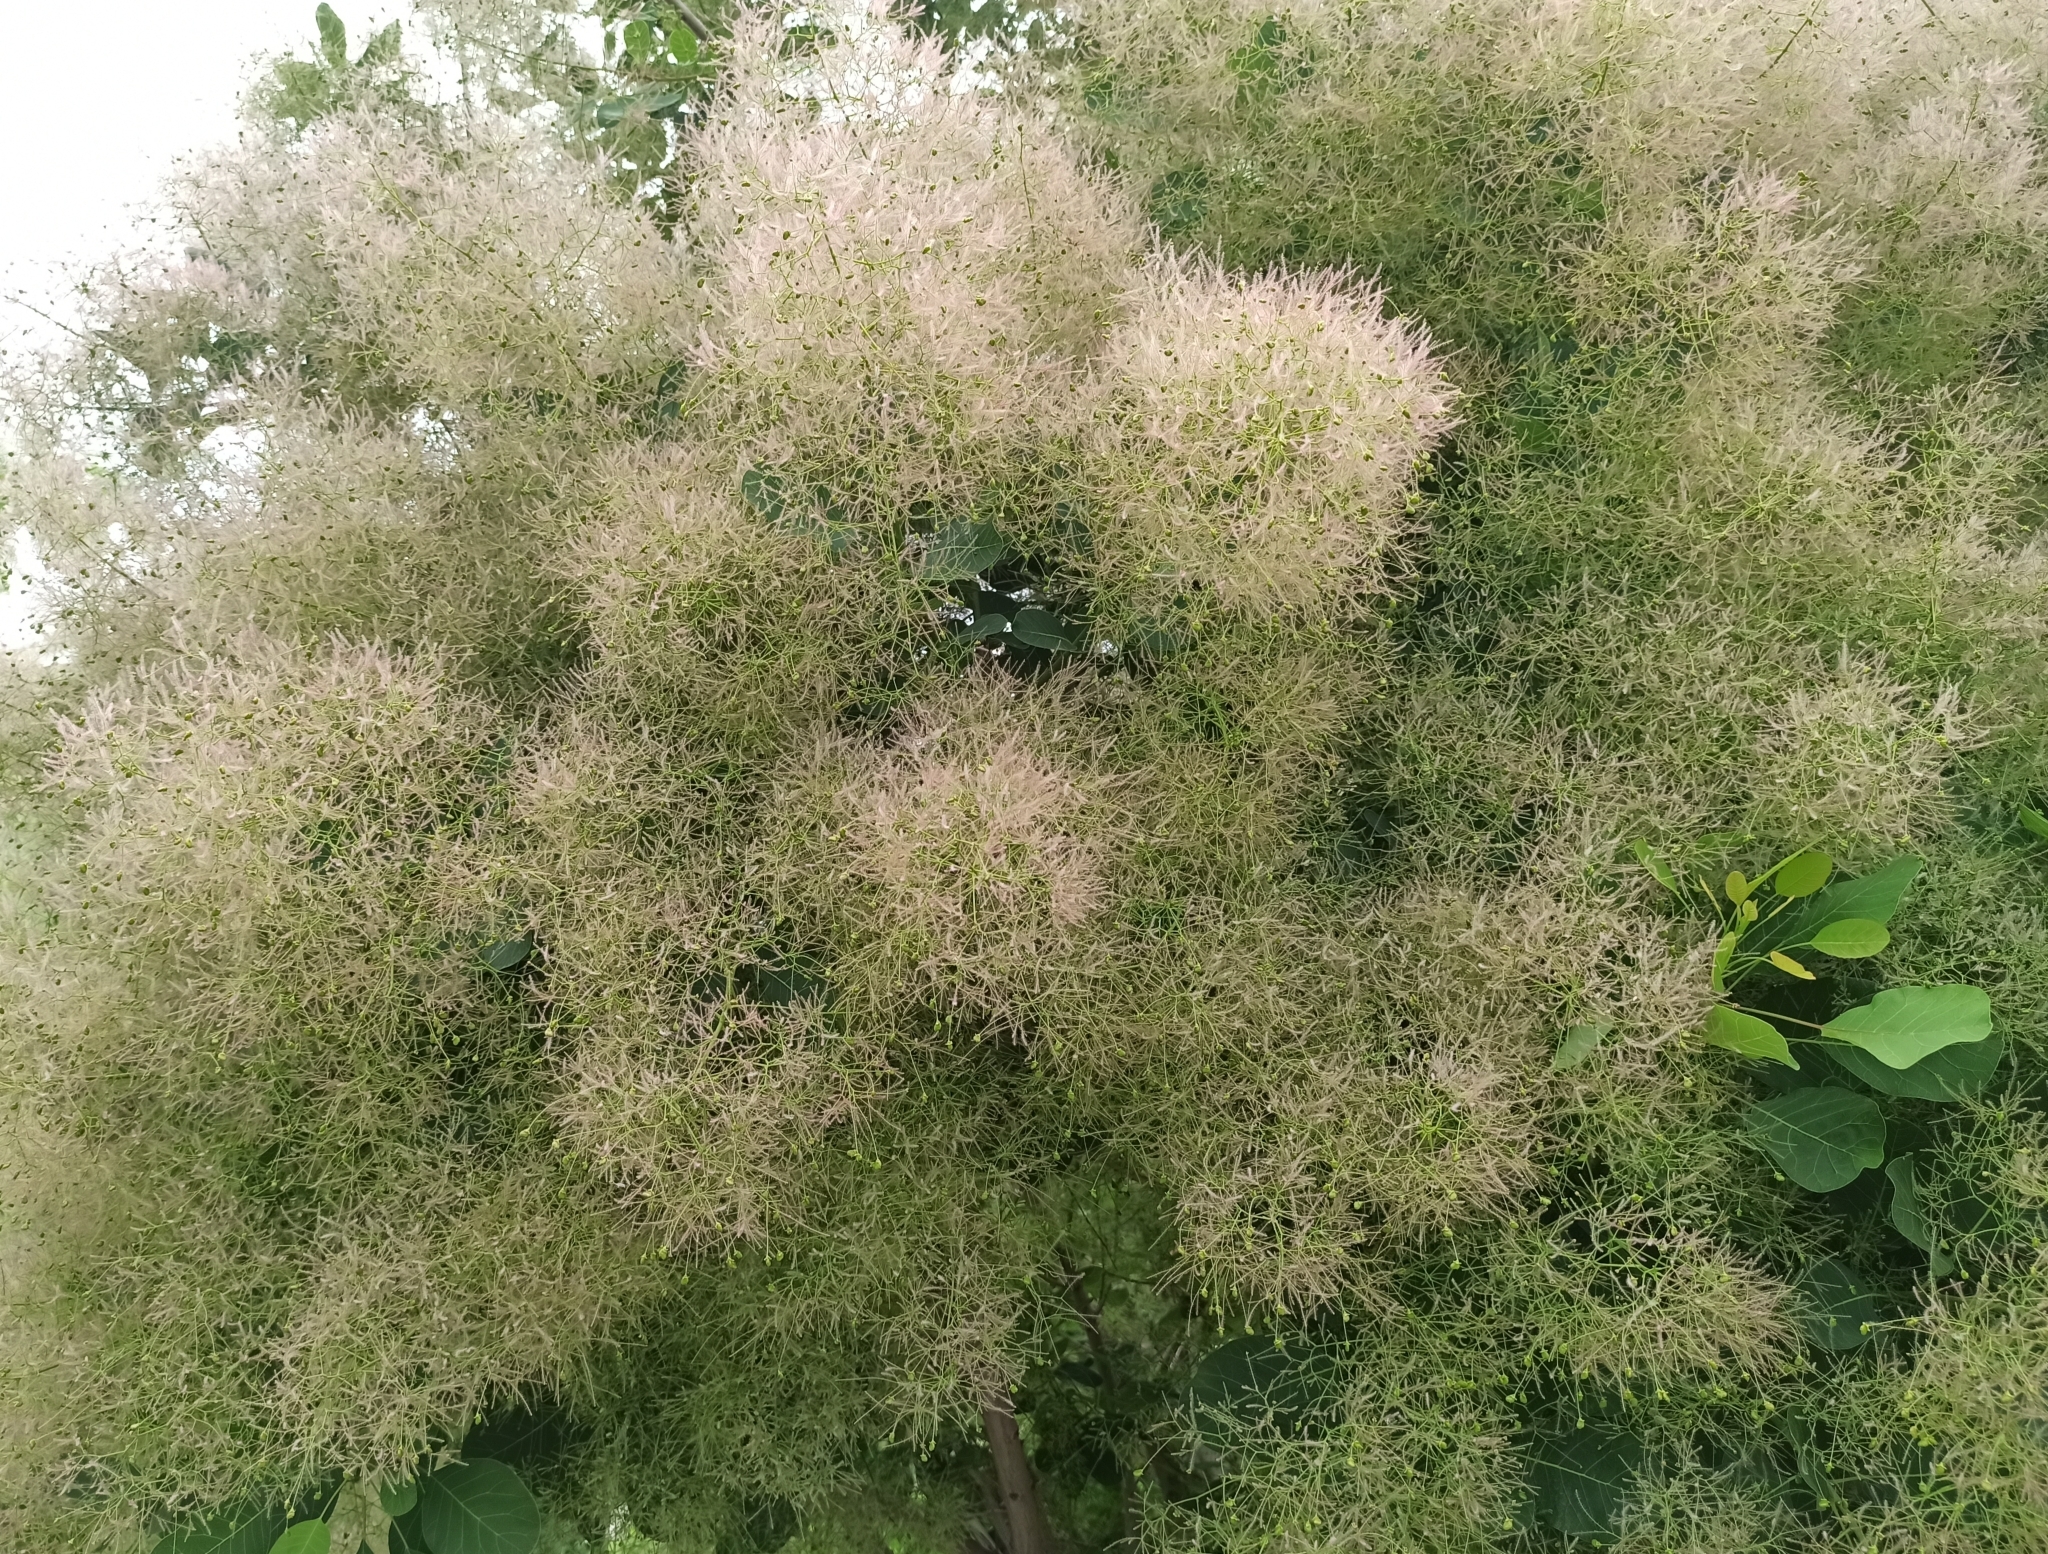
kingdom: Plantae
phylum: Tracheophyta
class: Magnoliopsida
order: Sapindales
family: Anacardiaceae
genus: Cotinus
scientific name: Cotinus coggygria
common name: Smoke-tree
